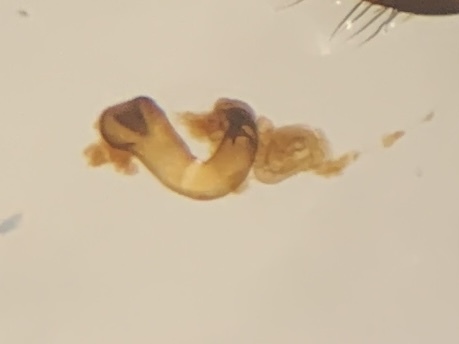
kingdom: Animalia
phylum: Arthropoda
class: Insecta
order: Coleoptera
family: Staphylinidae
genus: Atheta
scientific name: Atheta triangulum
